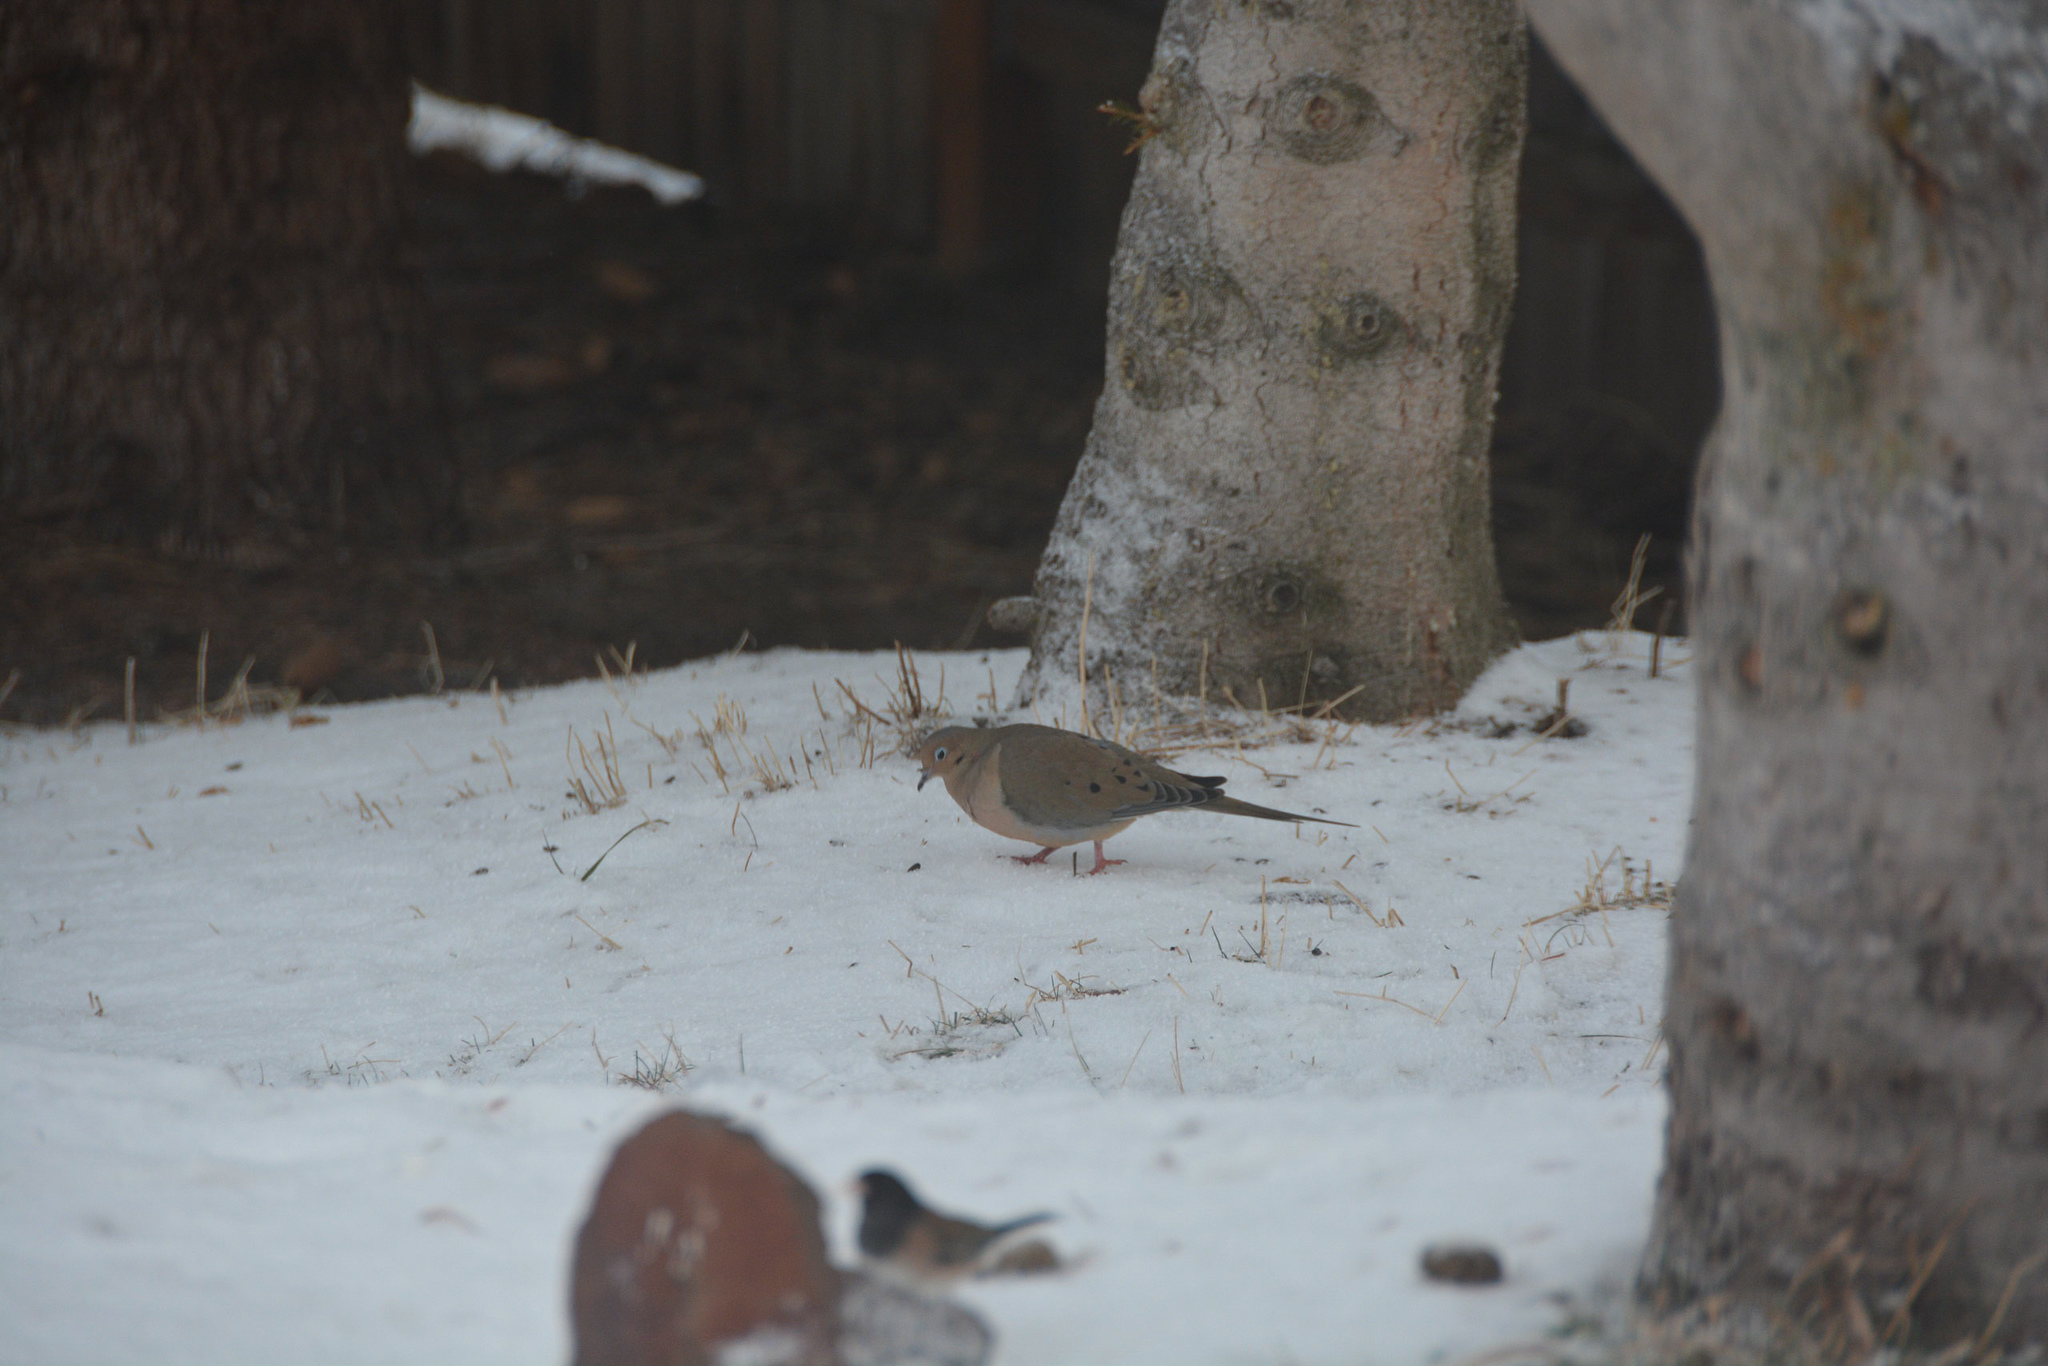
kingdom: Animalia
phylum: Chordata
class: Aves
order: Columbiformes
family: Columbidae
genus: Zenaida
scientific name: Zenaida macroura
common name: Mourning dove
